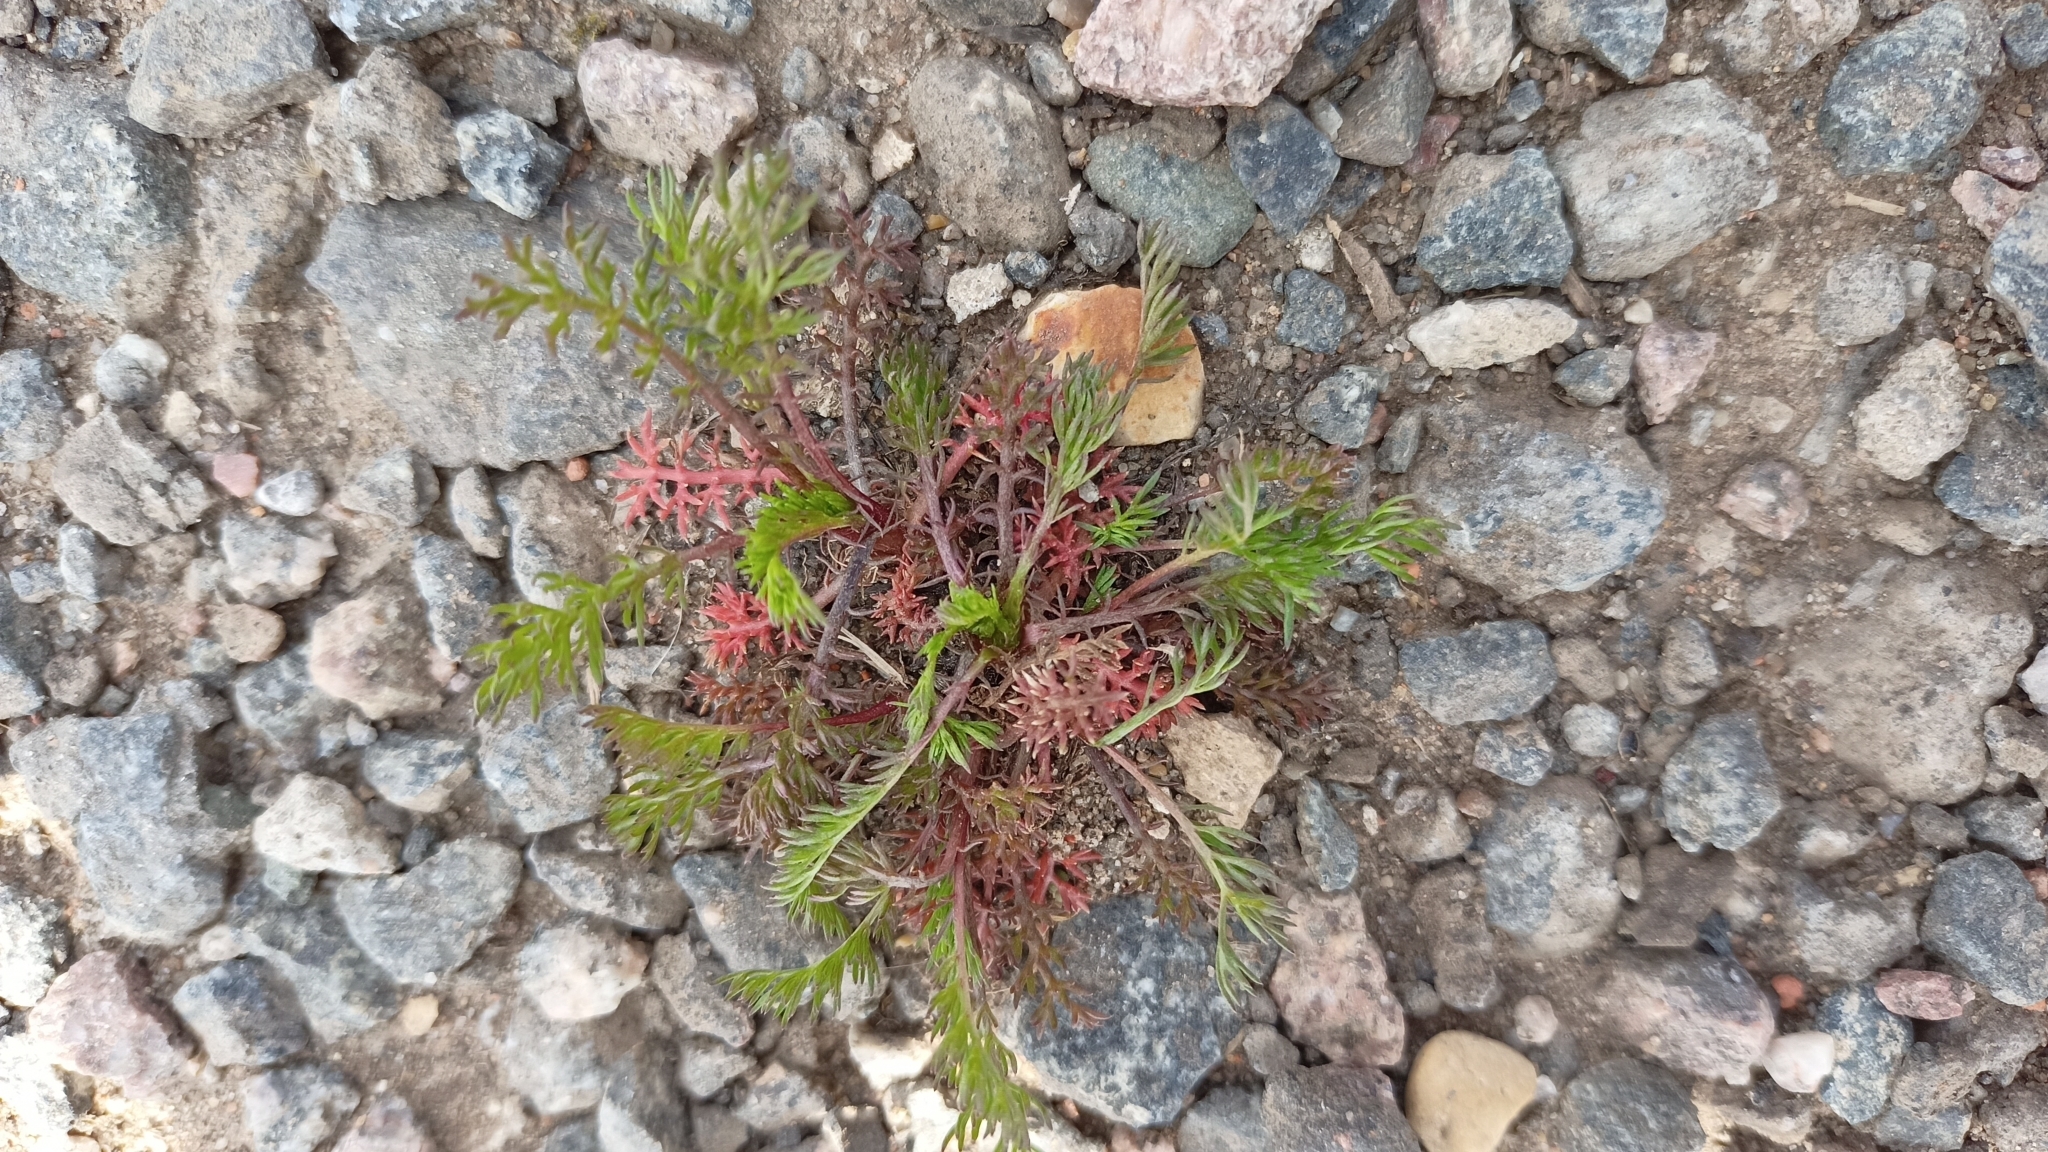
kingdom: Plantae
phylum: Tracheophyta
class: Magnoliopsida
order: Asterales
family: Asteraceae
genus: Tripleurospermum
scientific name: Tripleurospermum inodorum
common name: Scentless mayweed
